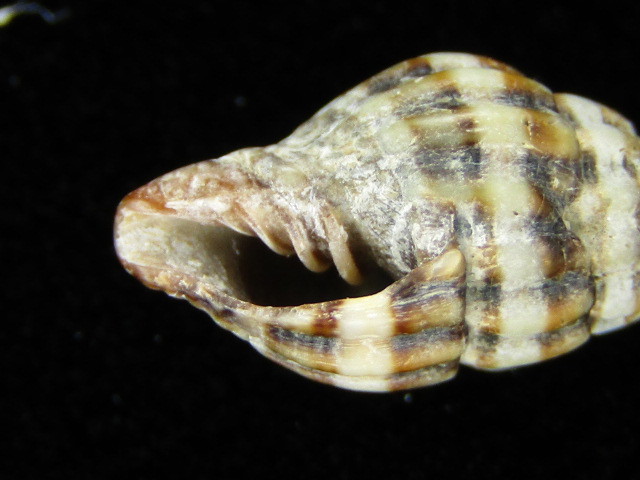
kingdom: Animalia
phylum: Mollusca
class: Gastropoda
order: Neogastropoda
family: Costellariidae
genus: Vexillum
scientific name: Vexillum discolorium
